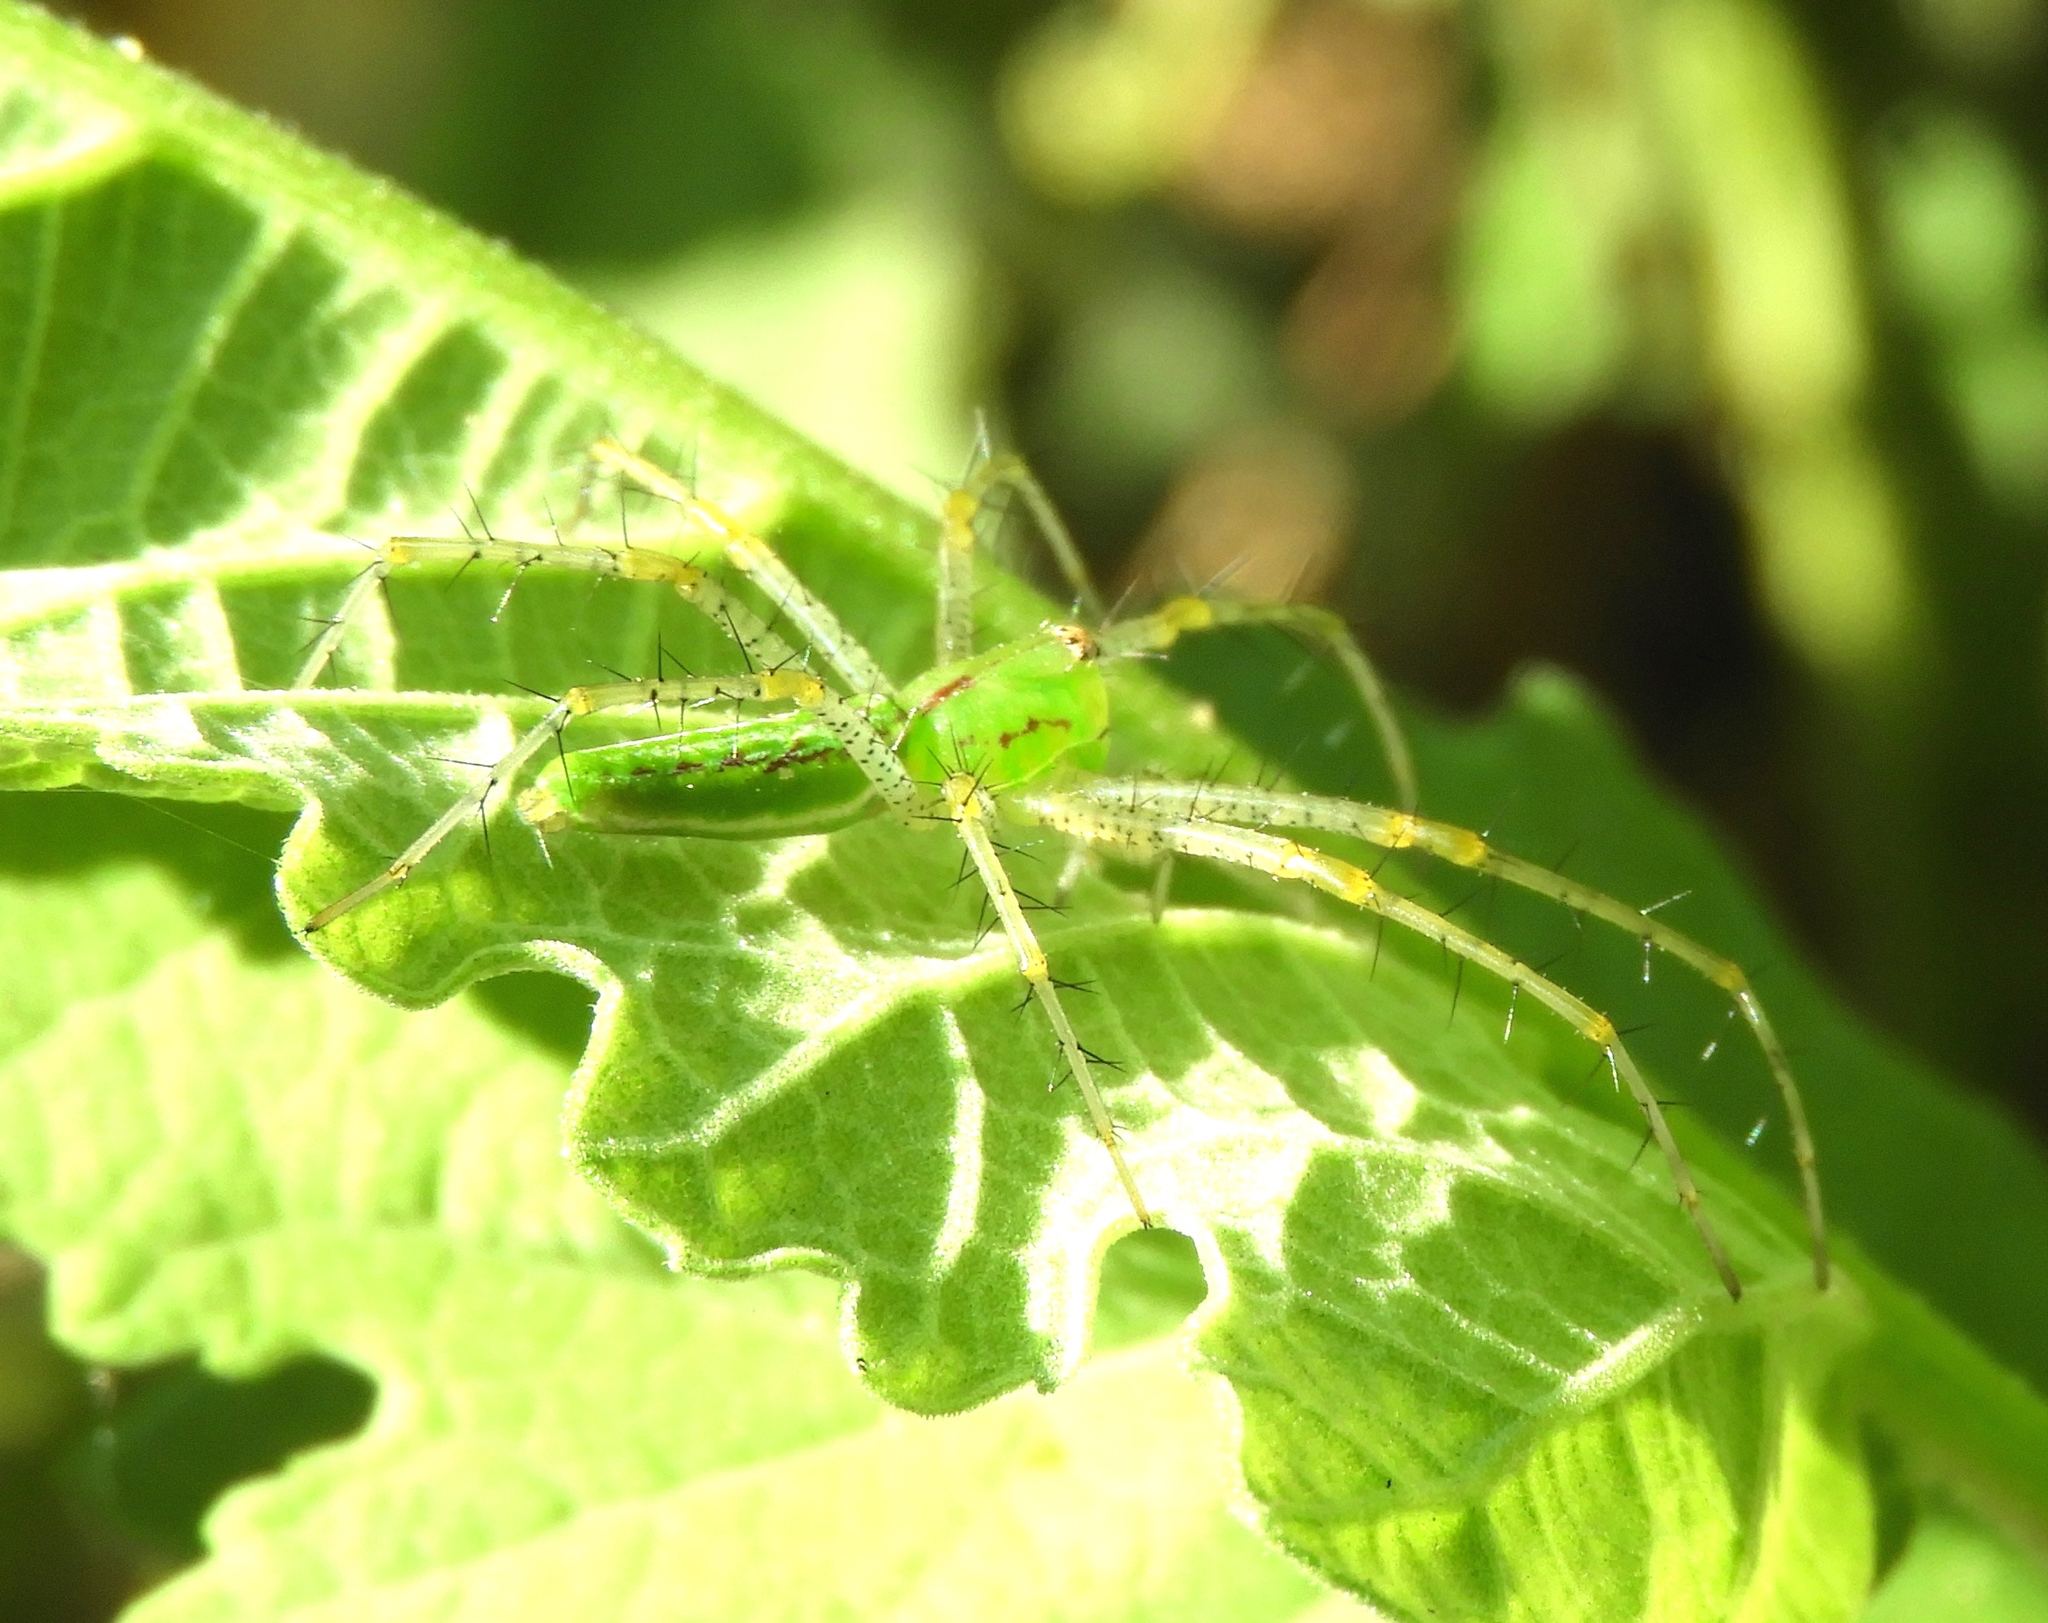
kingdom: Animalia
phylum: Arthropoda
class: Arachnida
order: Araneae
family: Oxyopidae
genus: Peucetia
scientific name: Peucetia
